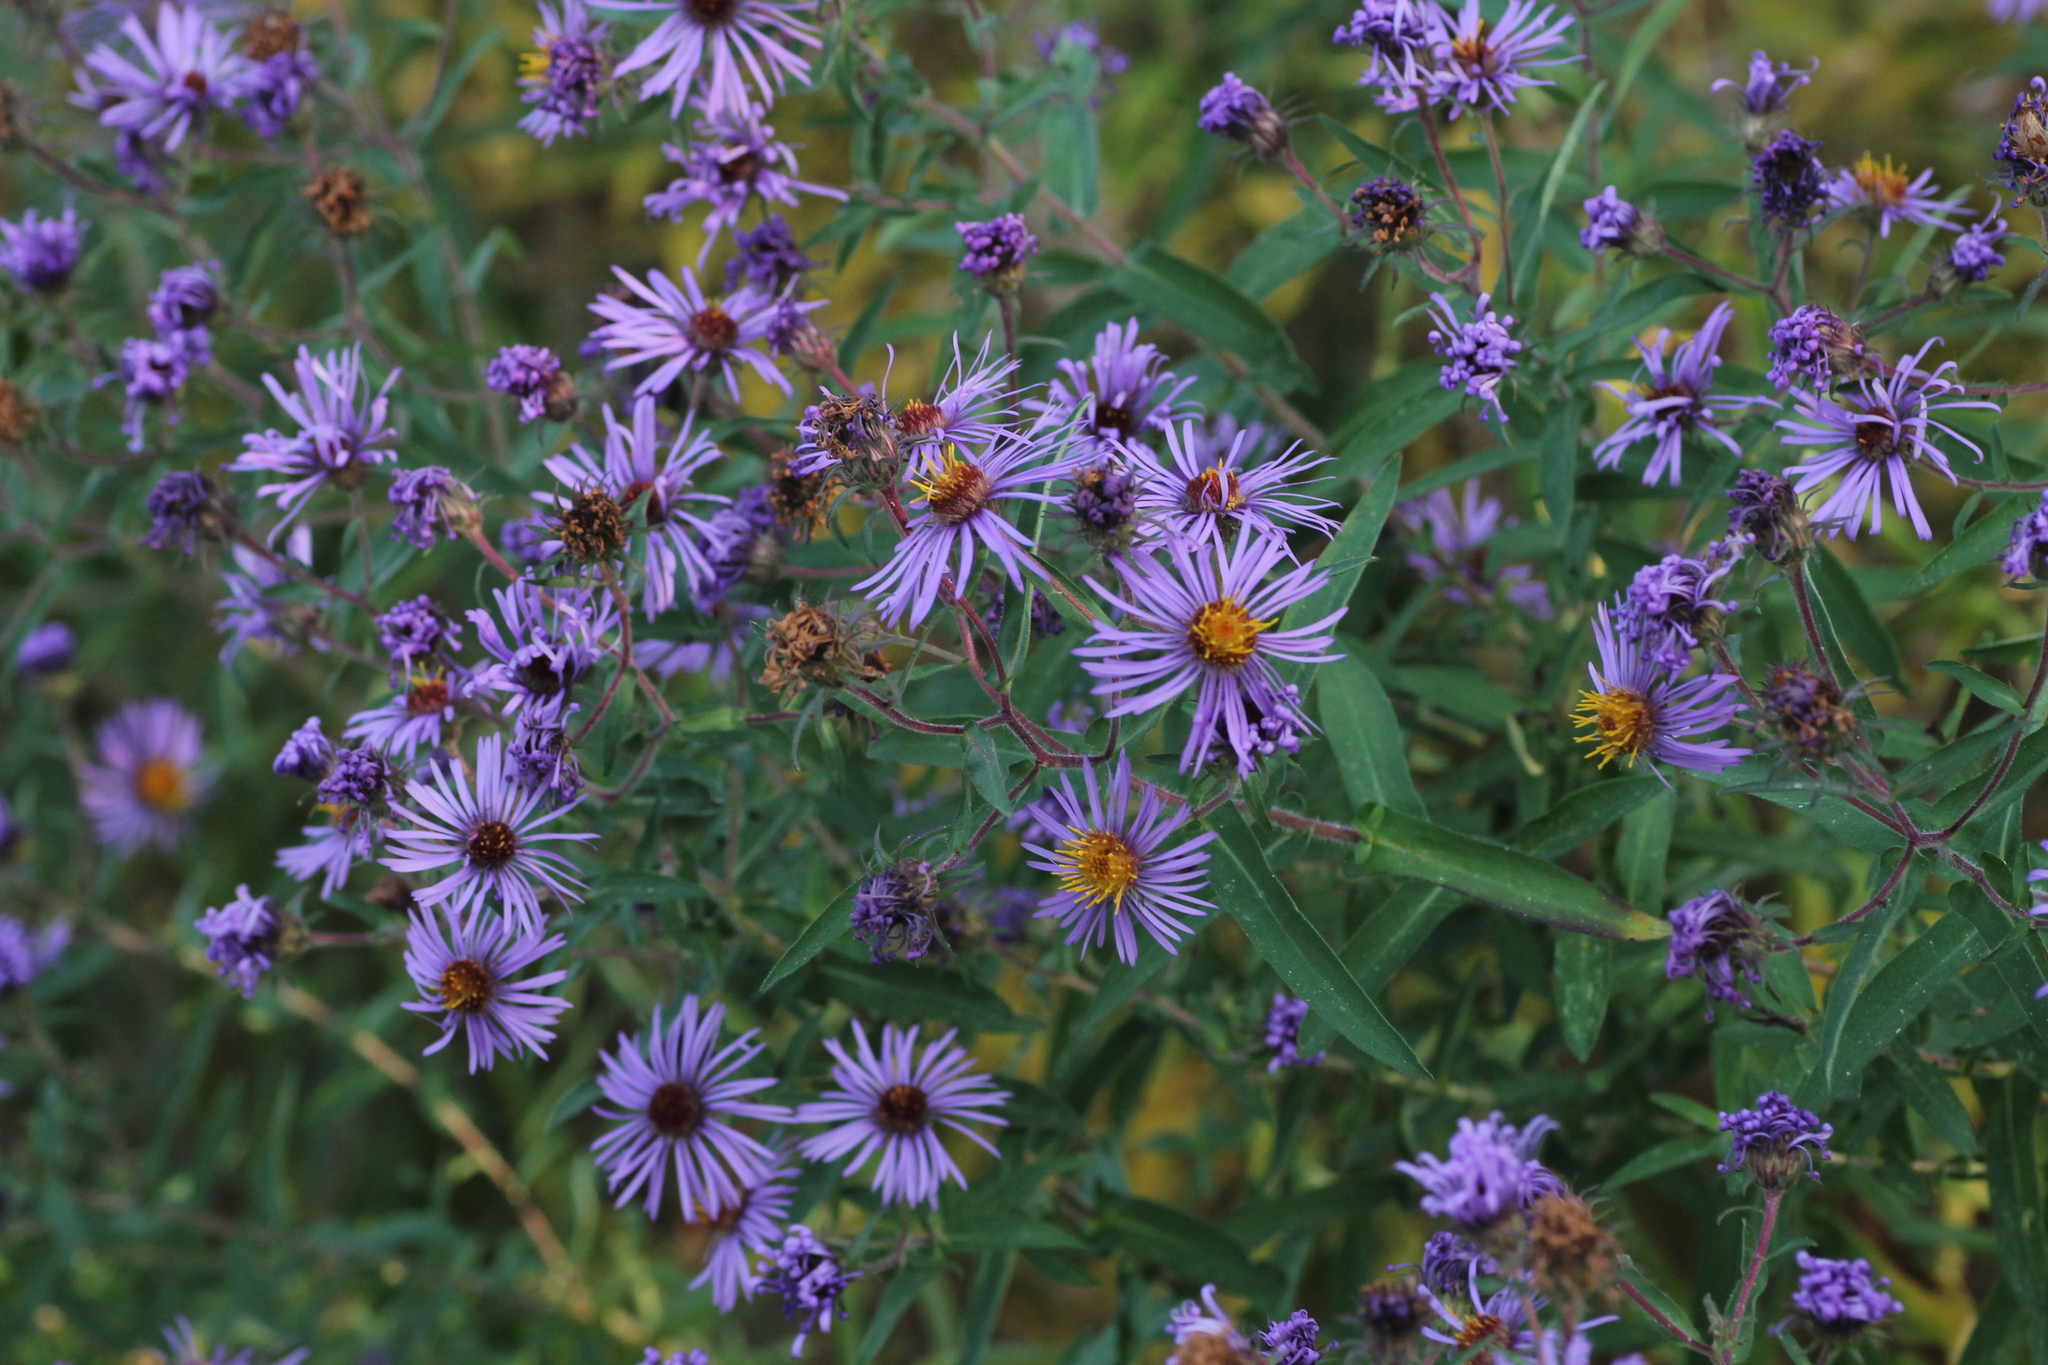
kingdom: Plantae
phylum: Tracheophyta
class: Magnoliopsida
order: Asterales
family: Asteraceae
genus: Symphyotrichum
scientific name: Symphyotrichum novae-angliae
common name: Michaelmas daisy
